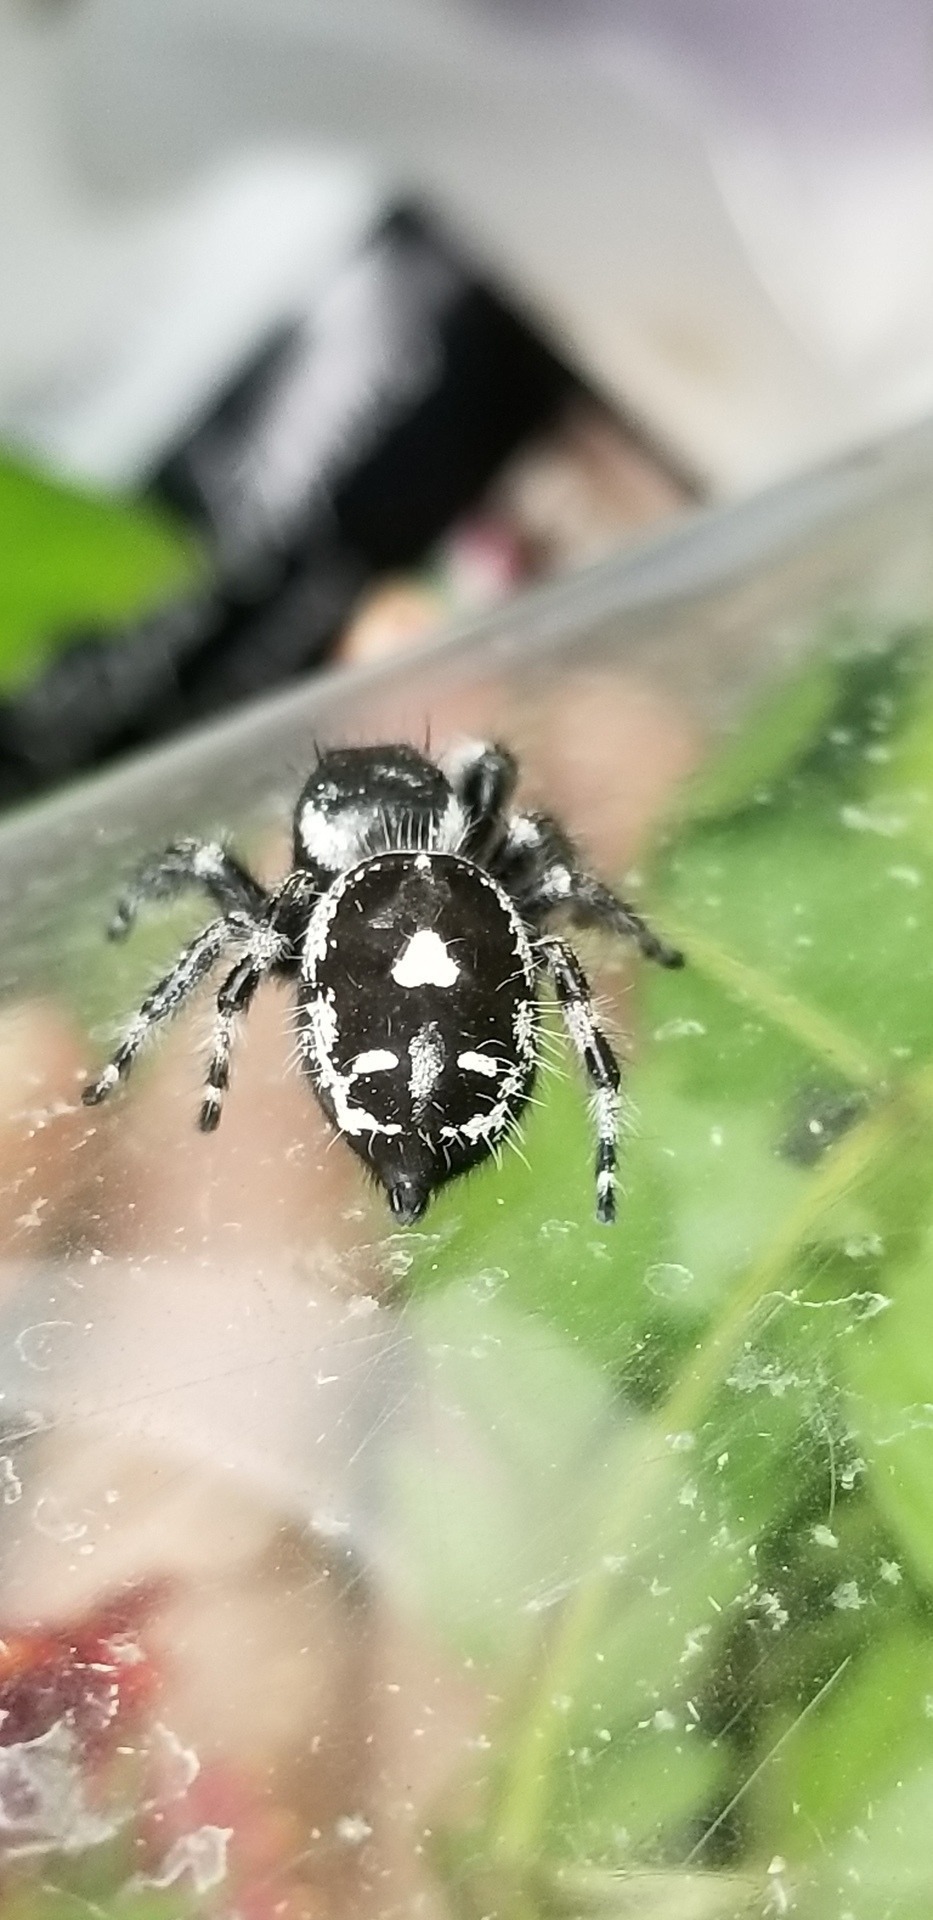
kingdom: Animalia
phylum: Arthropoda
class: Arachnida
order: Araneae
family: Salticidae
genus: Phidippus
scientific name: Phidippus audax
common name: Bold jumper
